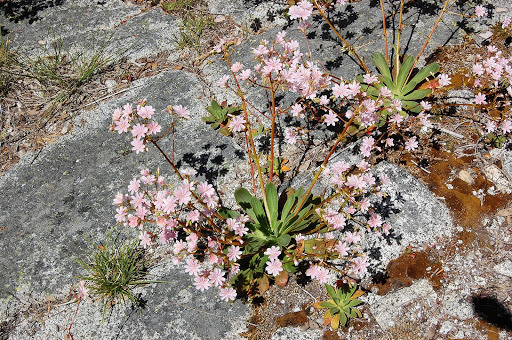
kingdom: Plantae
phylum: Tracheophyta
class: Magnoliopsida
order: Caryophyllales
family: Montiaceae
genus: Lewisia
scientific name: Lewisia cotyledon
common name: Siskiyou lewisia
